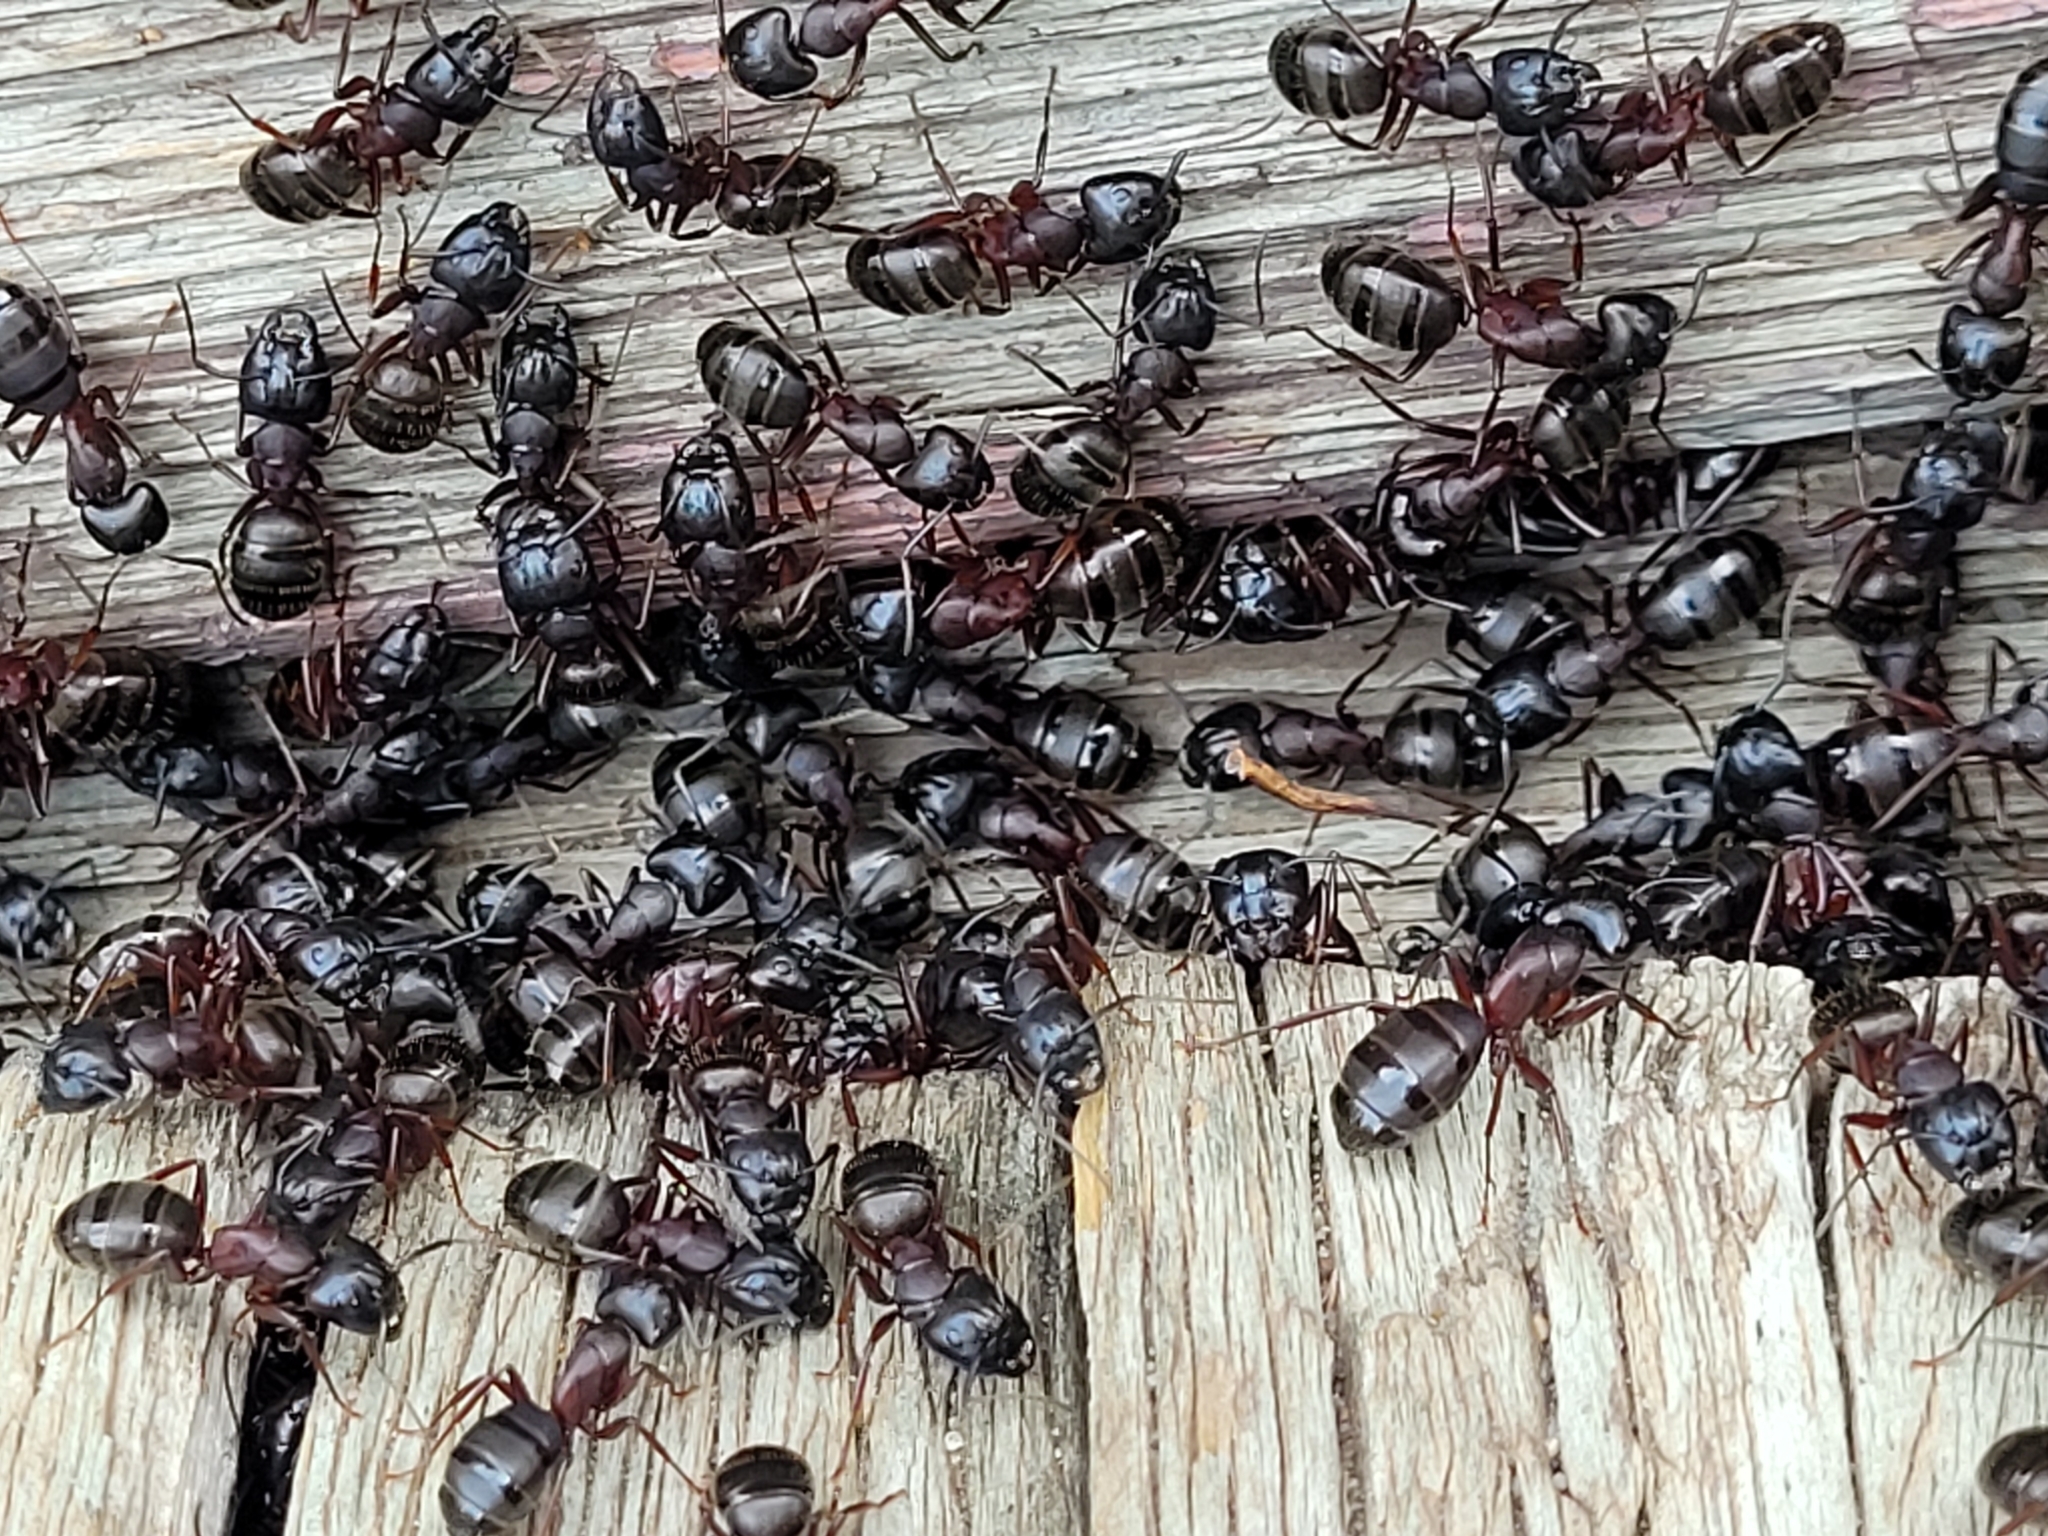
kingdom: Animalia
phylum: Arthropoda
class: Insecta
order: Hymenoptera
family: Formicidae
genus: Camponotus
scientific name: Camponotus herculeanus
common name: Hercules ant
